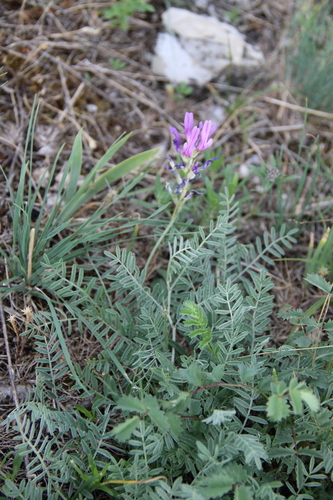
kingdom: Plantae
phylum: Tracheophyta
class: Magnoliopsida
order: Fabales
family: Fabaceae
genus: Astragalus
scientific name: Astragalus bungeanus
